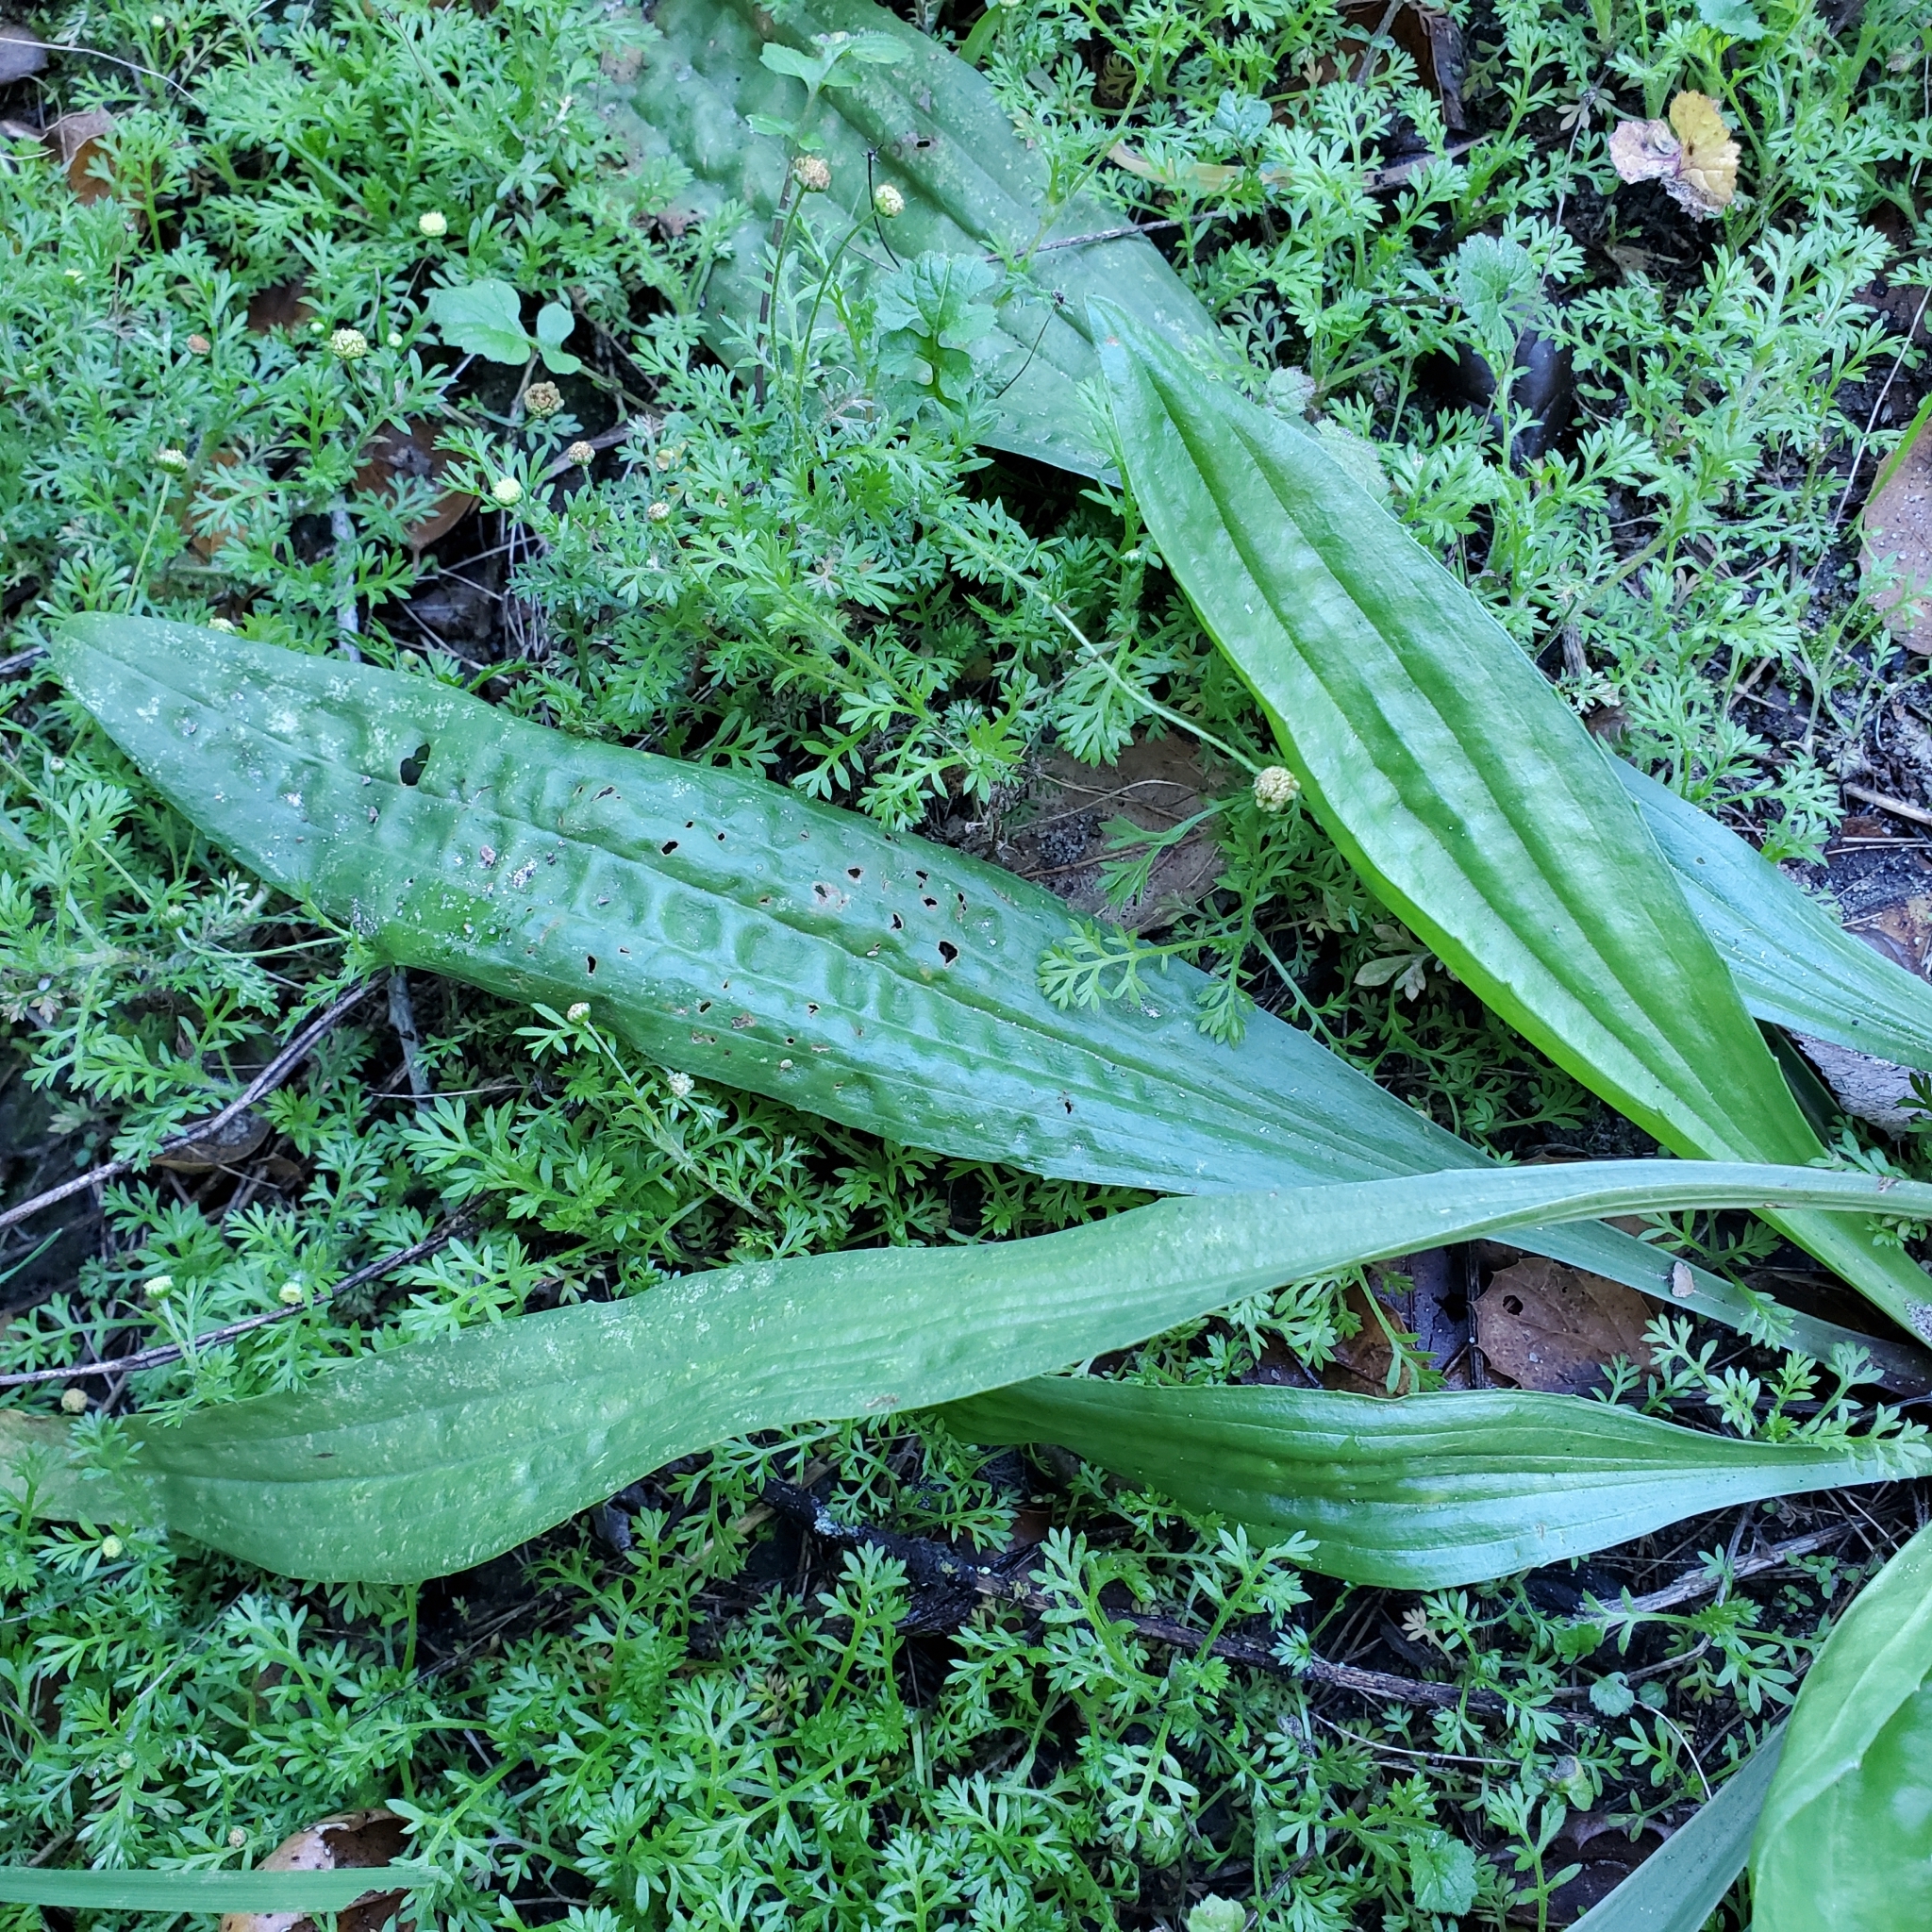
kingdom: Plantae
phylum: Tracheophyta
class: Magnoliopsida
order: Lamiales
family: Plantaginaceae
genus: Plantago
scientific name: Plantago lanceolata
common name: Ribwort plantain
